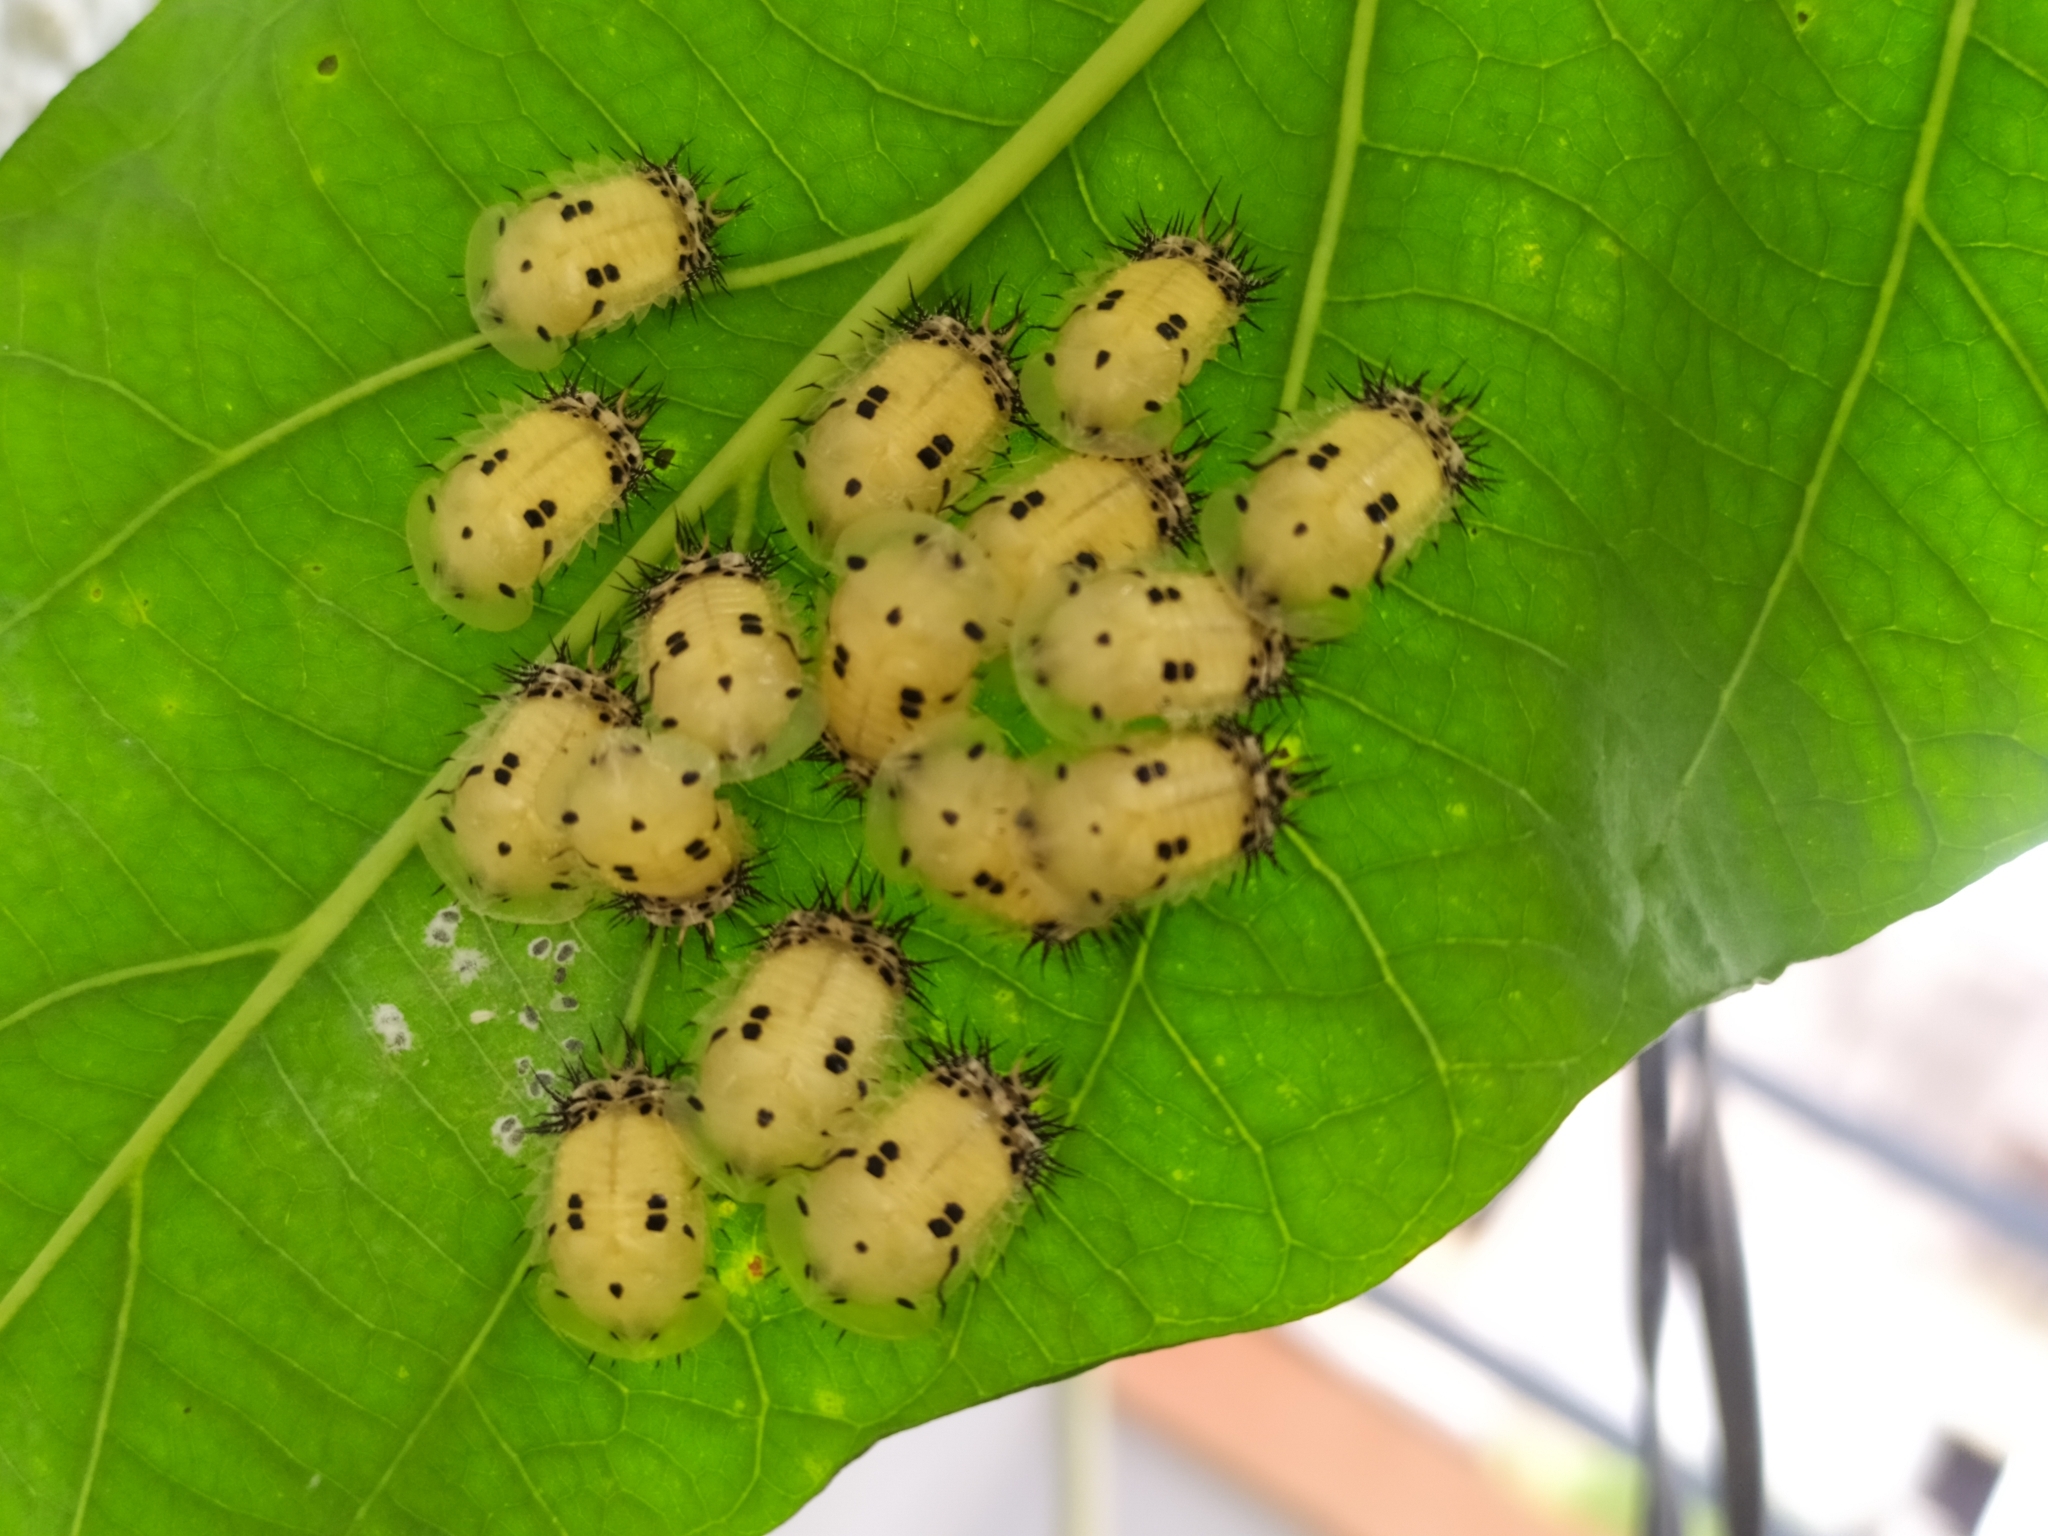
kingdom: Animalia
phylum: Arthropoda
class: Insecta
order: Coleoptera
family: Chrysomelidae
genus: Aspidimorpha
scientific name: Aspidimorpha miliaris
